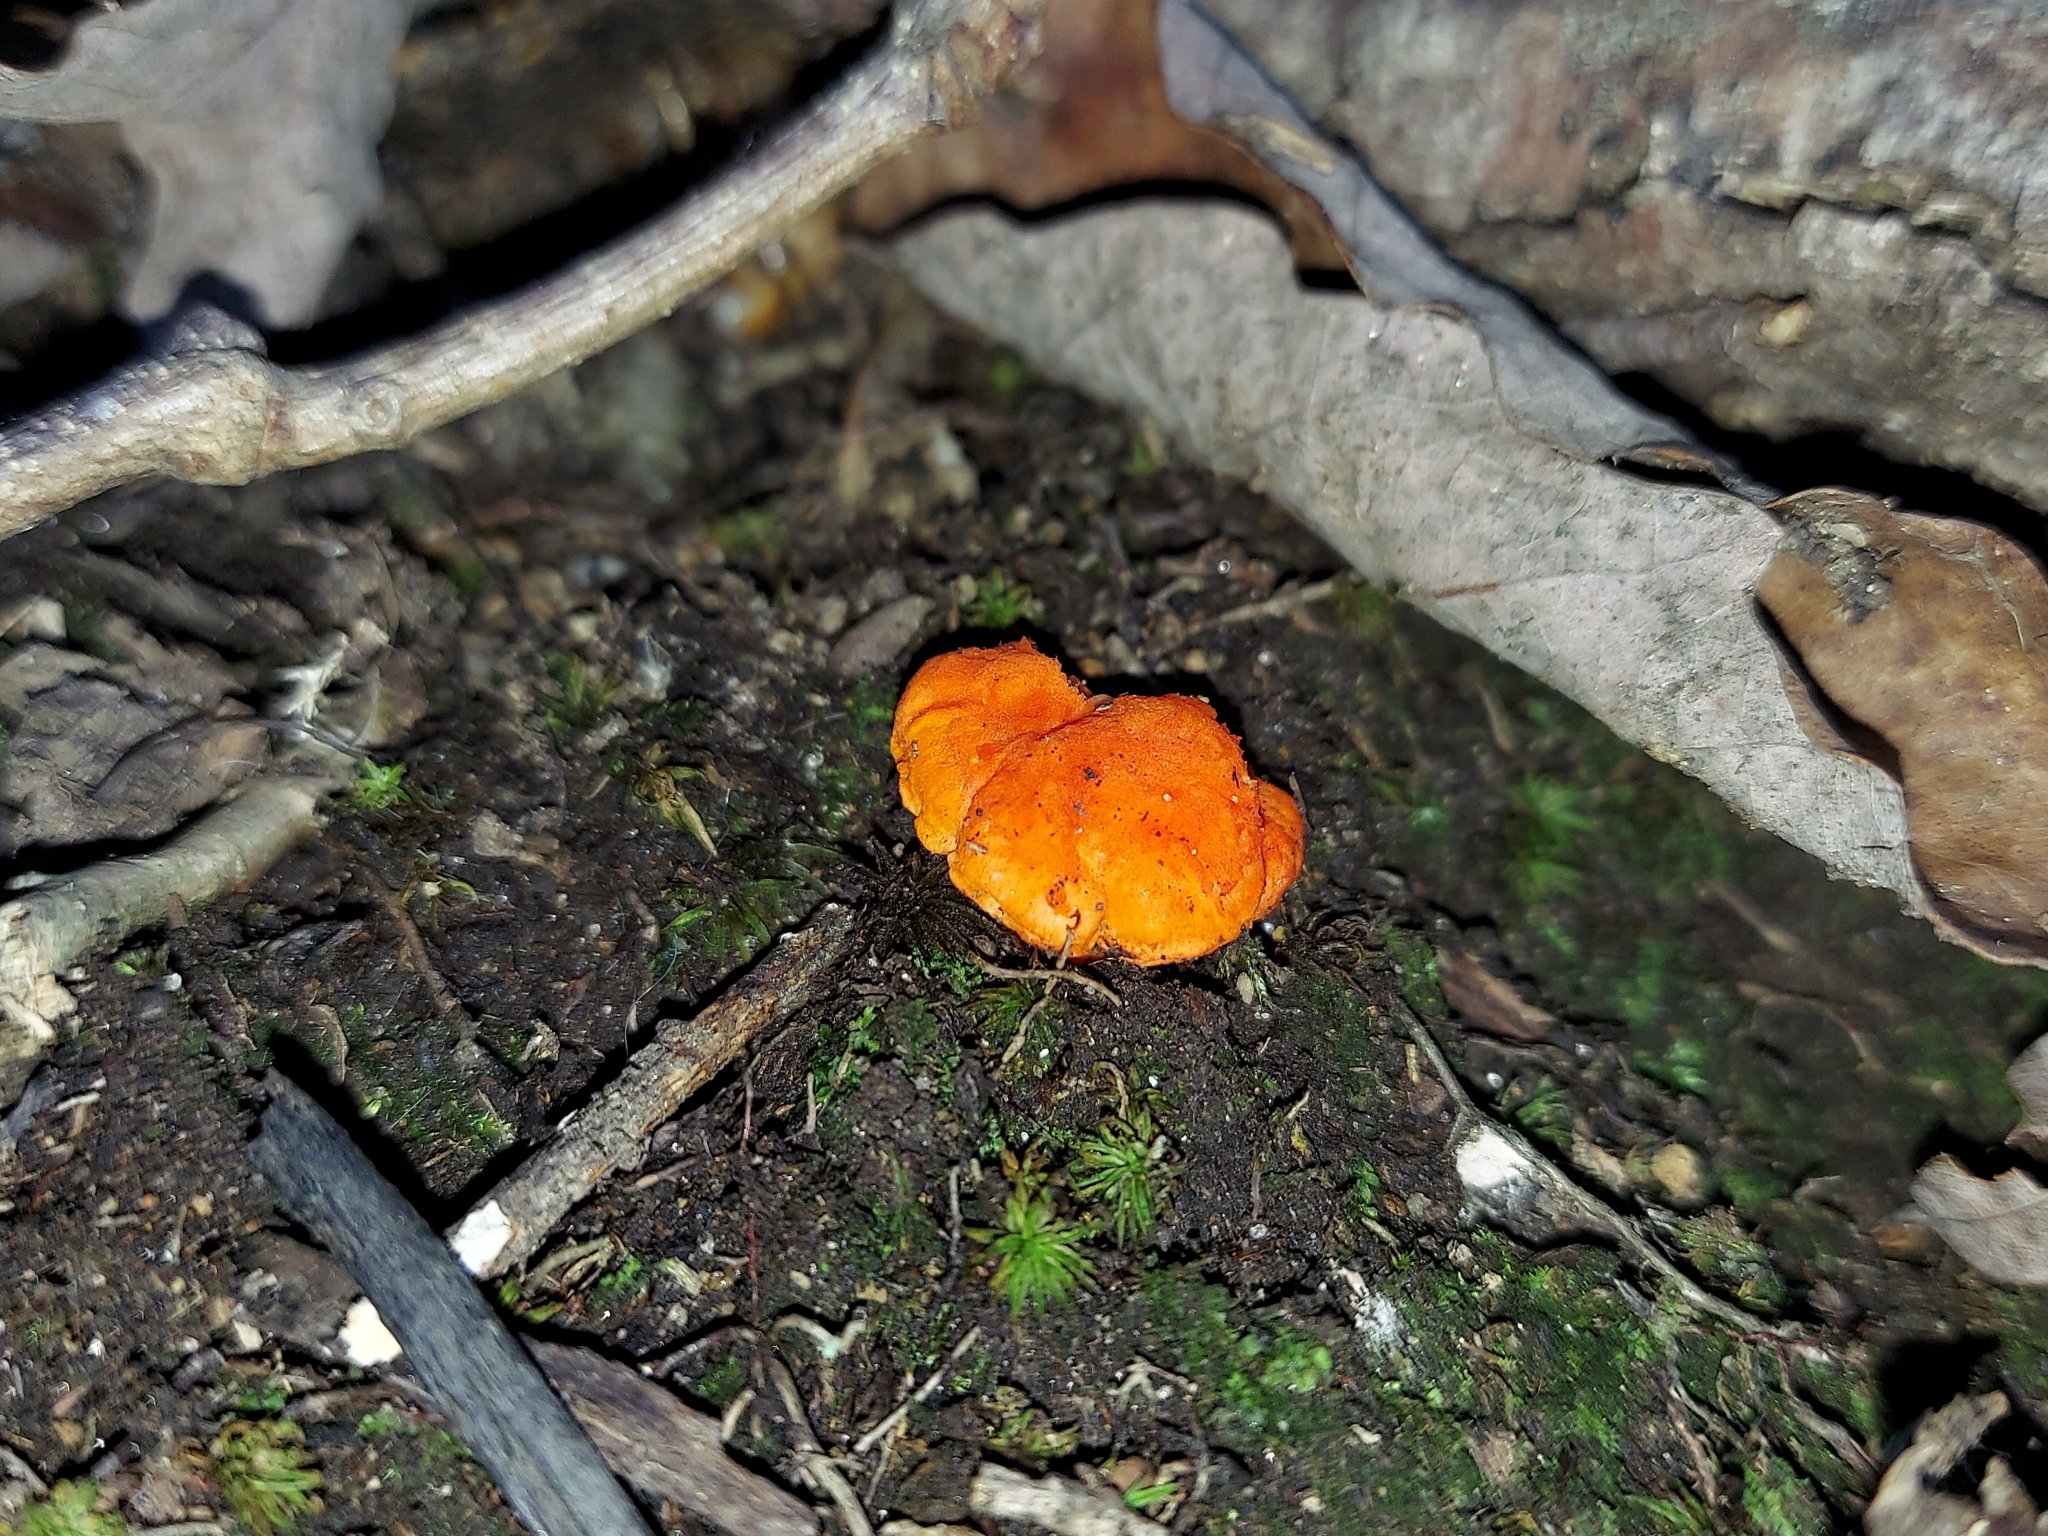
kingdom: Fungi
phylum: Basidiomycota
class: Agaricomycetes
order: Cantharellales
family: Hydnaceae
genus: Cantharellus
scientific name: Cantharellus cinnabarinus
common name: Cinnabar chanterelle
